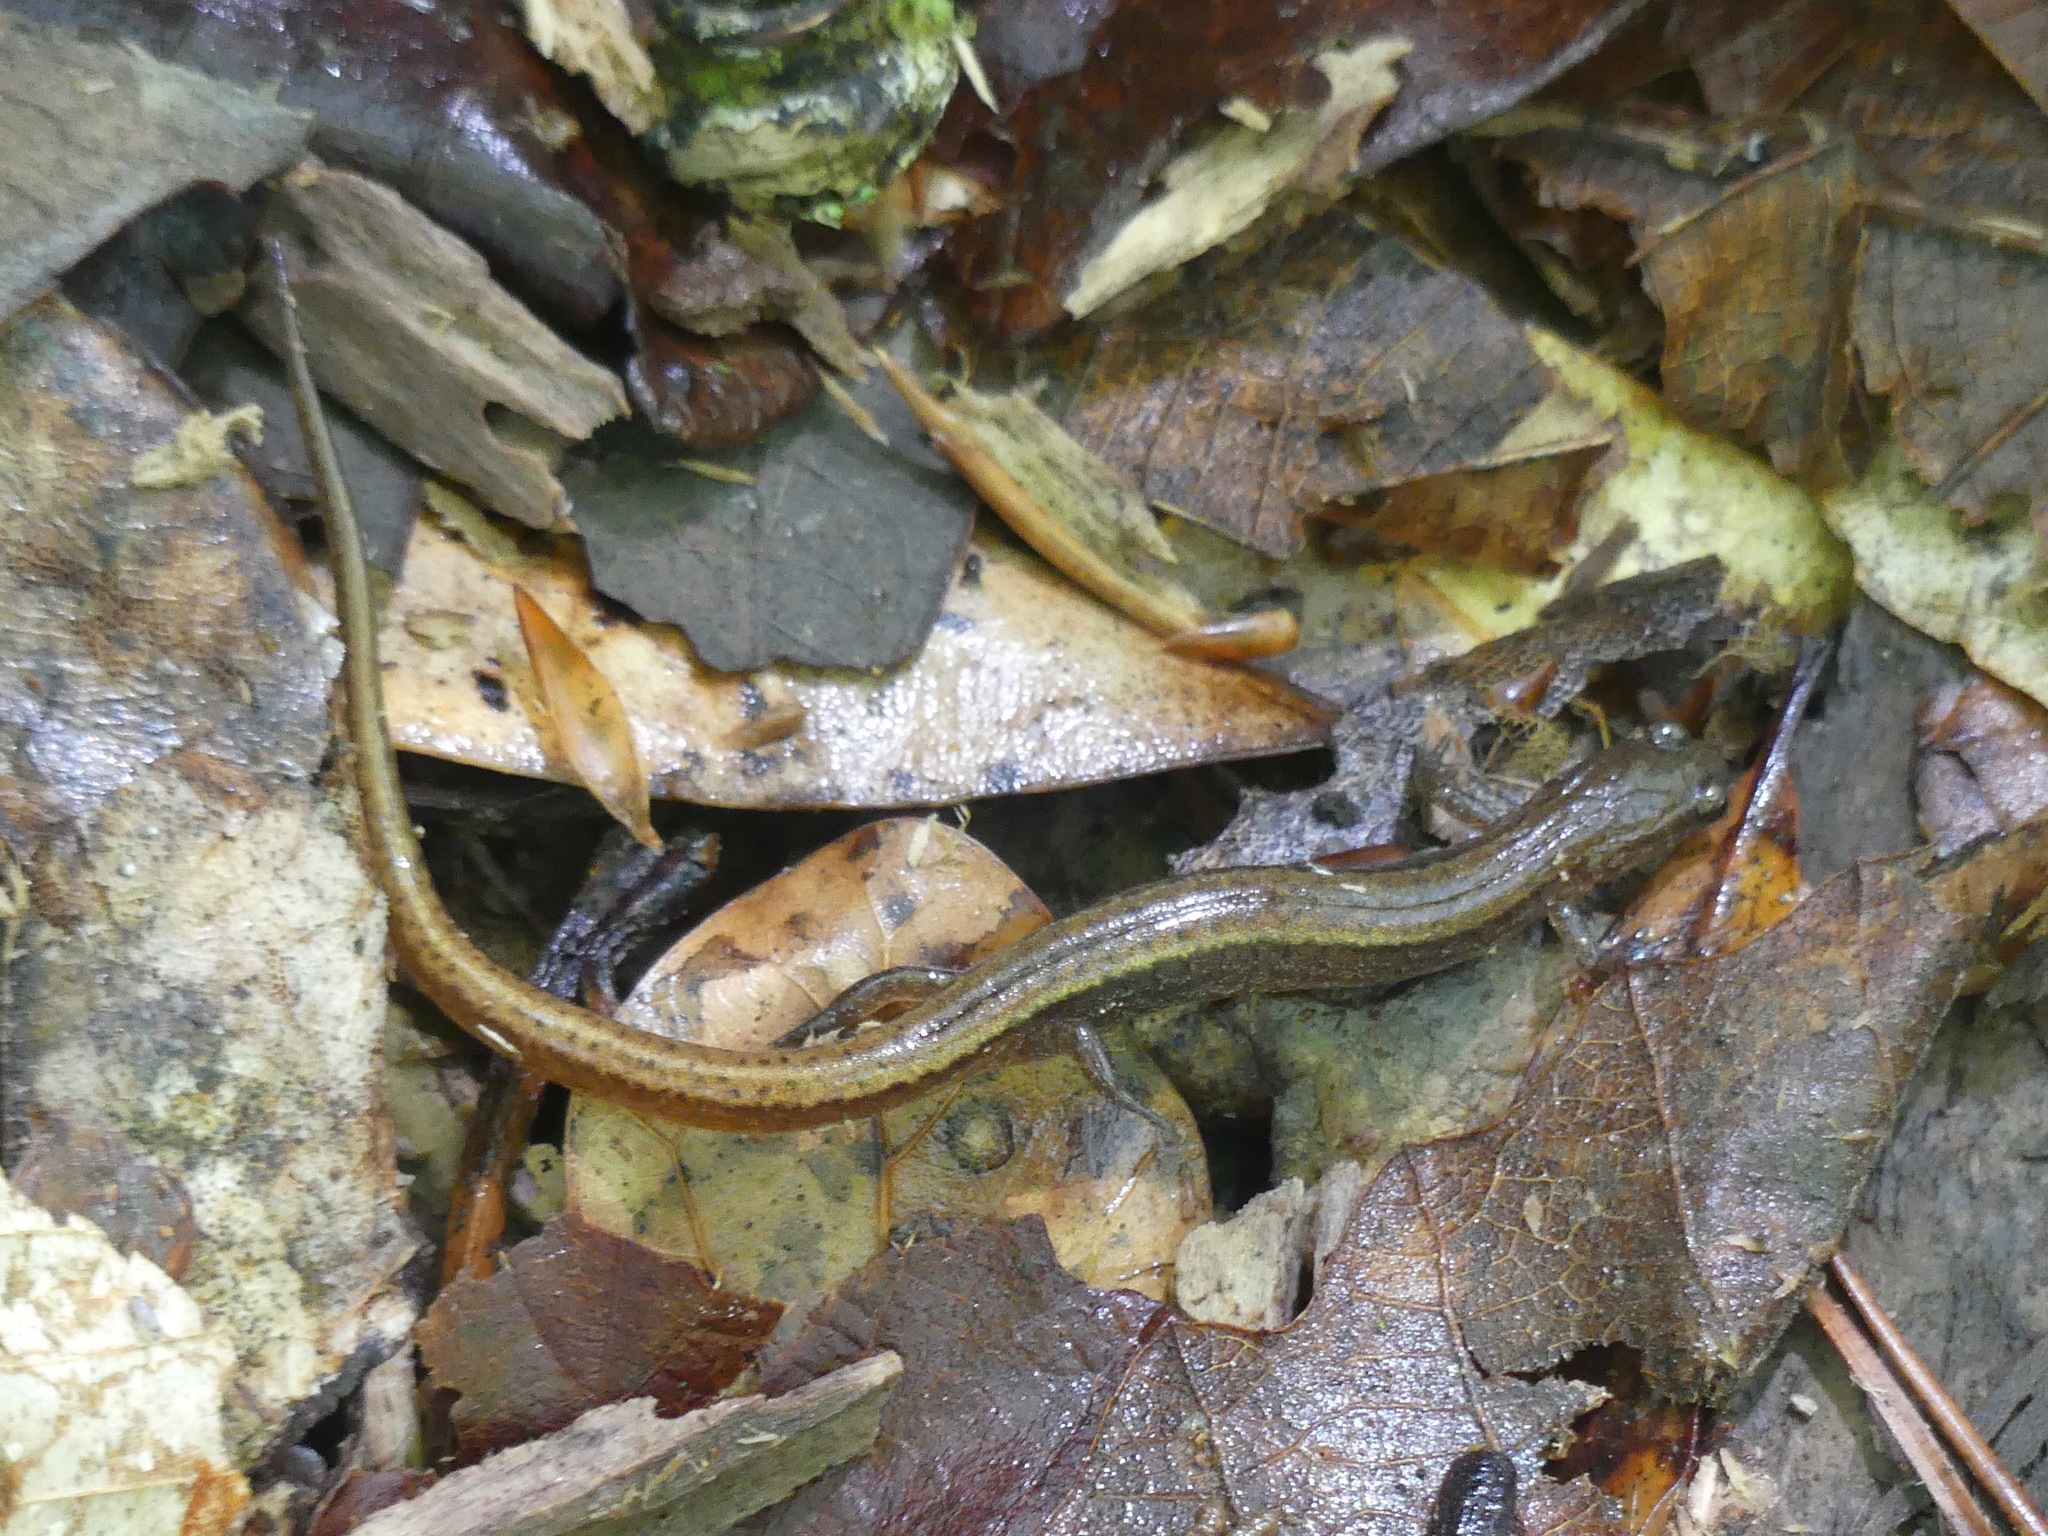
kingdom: Animalia
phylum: Chordata
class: Amphibia
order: Caudata
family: Plethodontidae
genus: Eurycea
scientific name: Eurycea paludicola
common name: Western dwarf salamander
